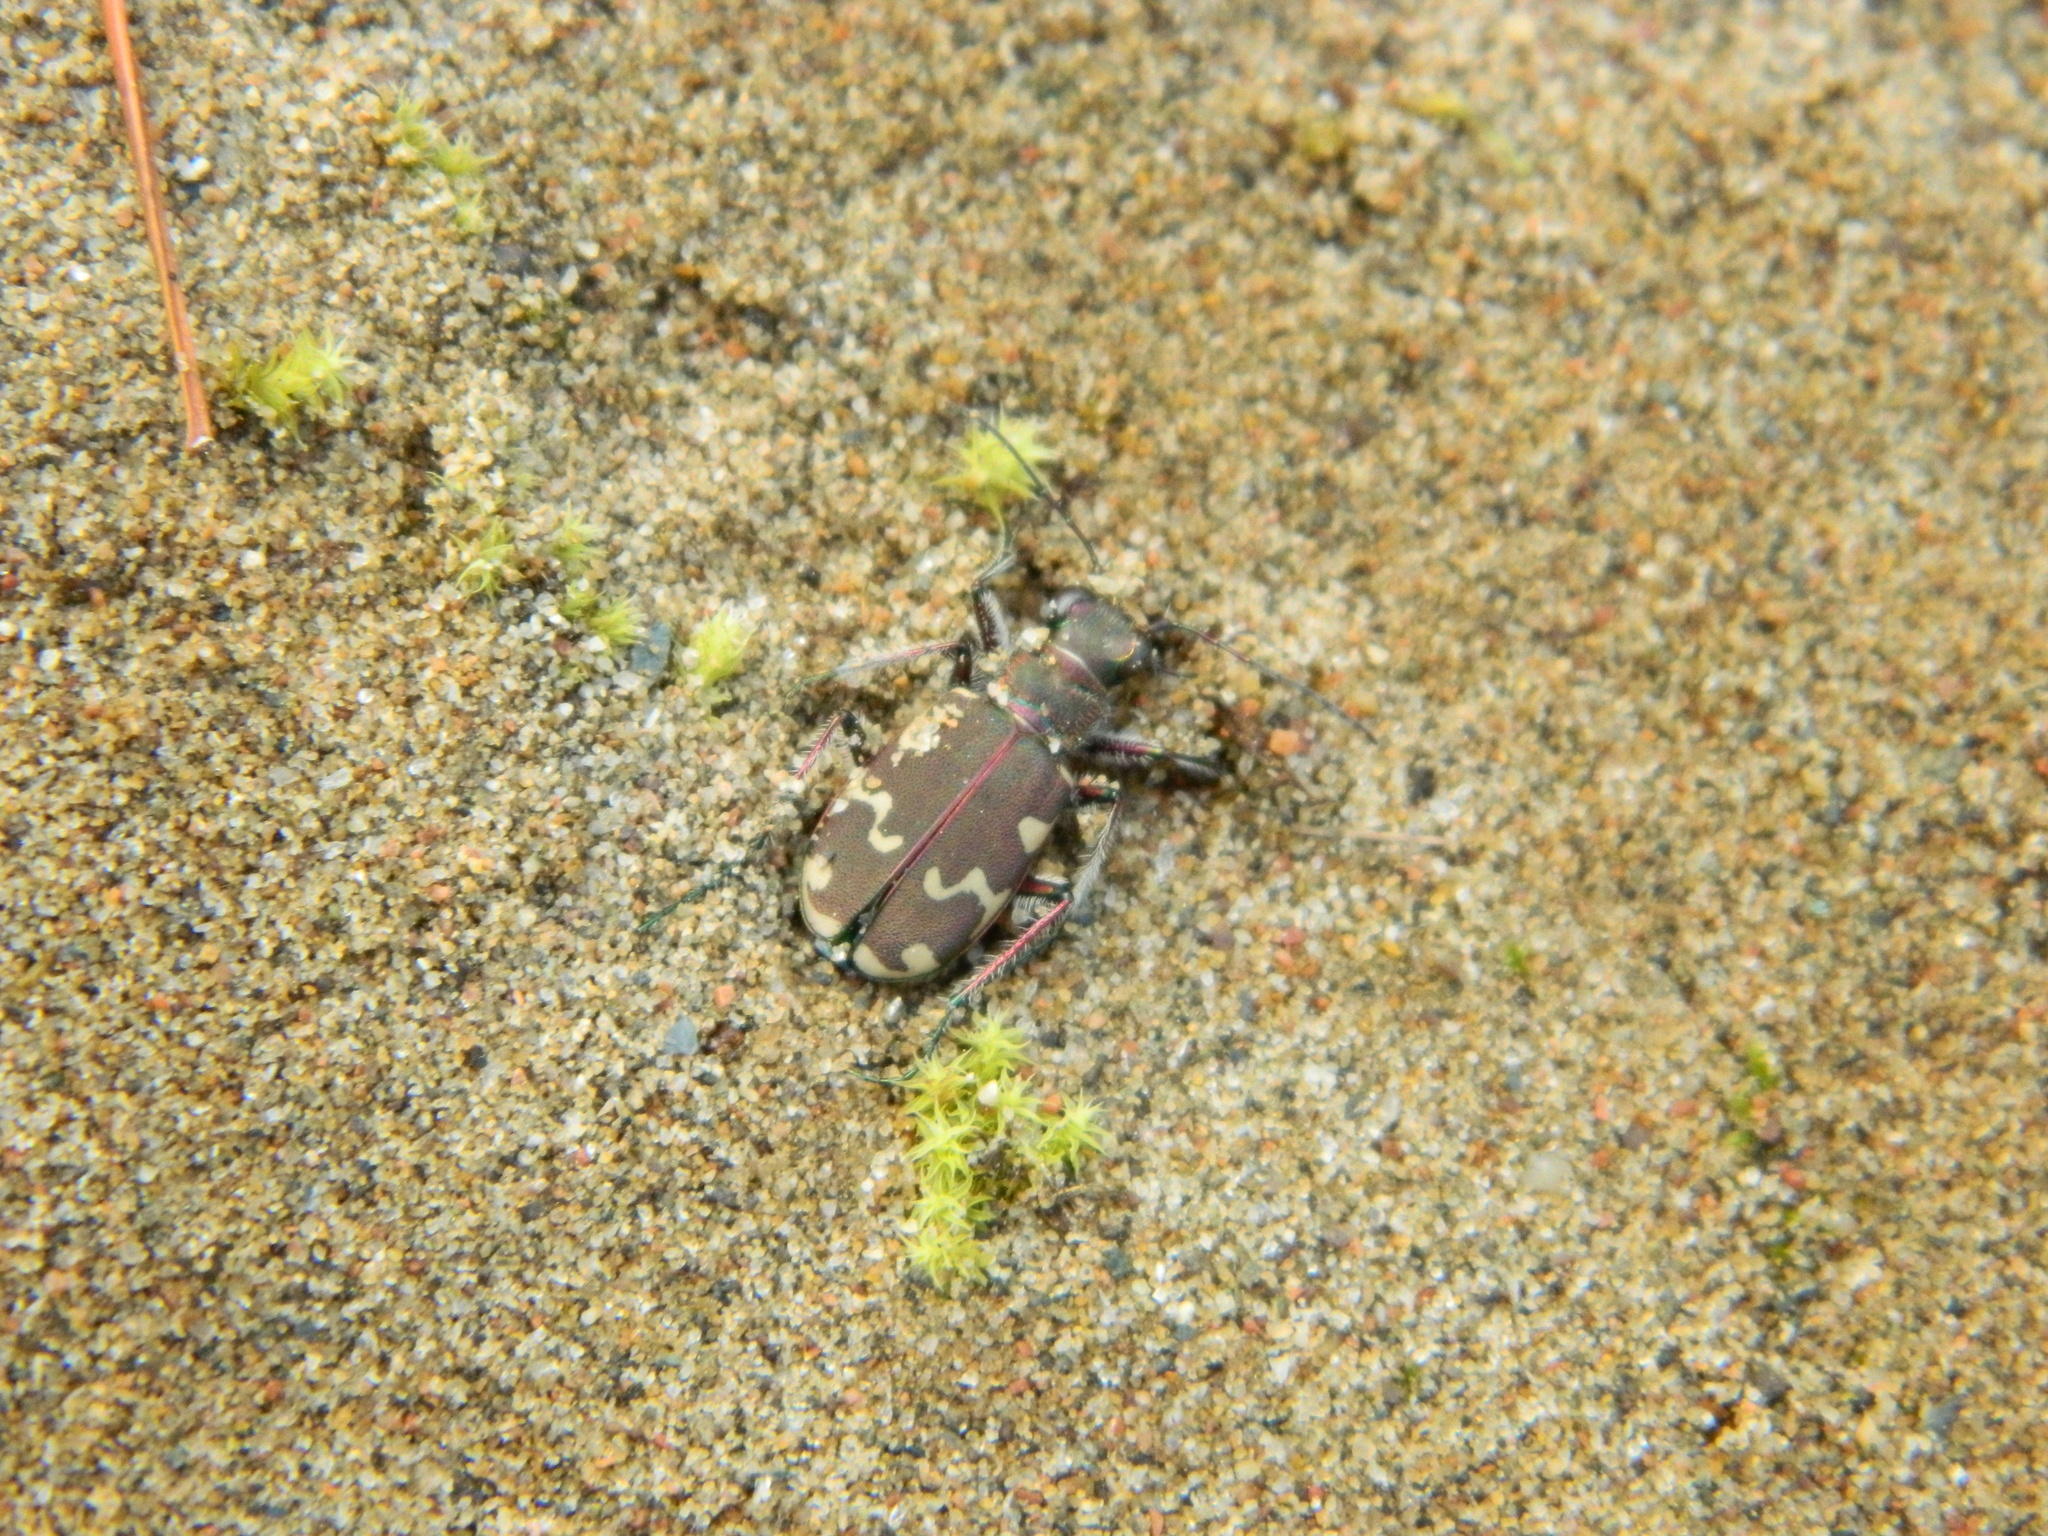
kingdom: Animalia
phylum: Arthropoda
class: Insecta
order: Coleoptera
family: Carabidae
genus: Cicindela
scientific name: Cicindela hybrida
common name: Northern dune tiger beetle
